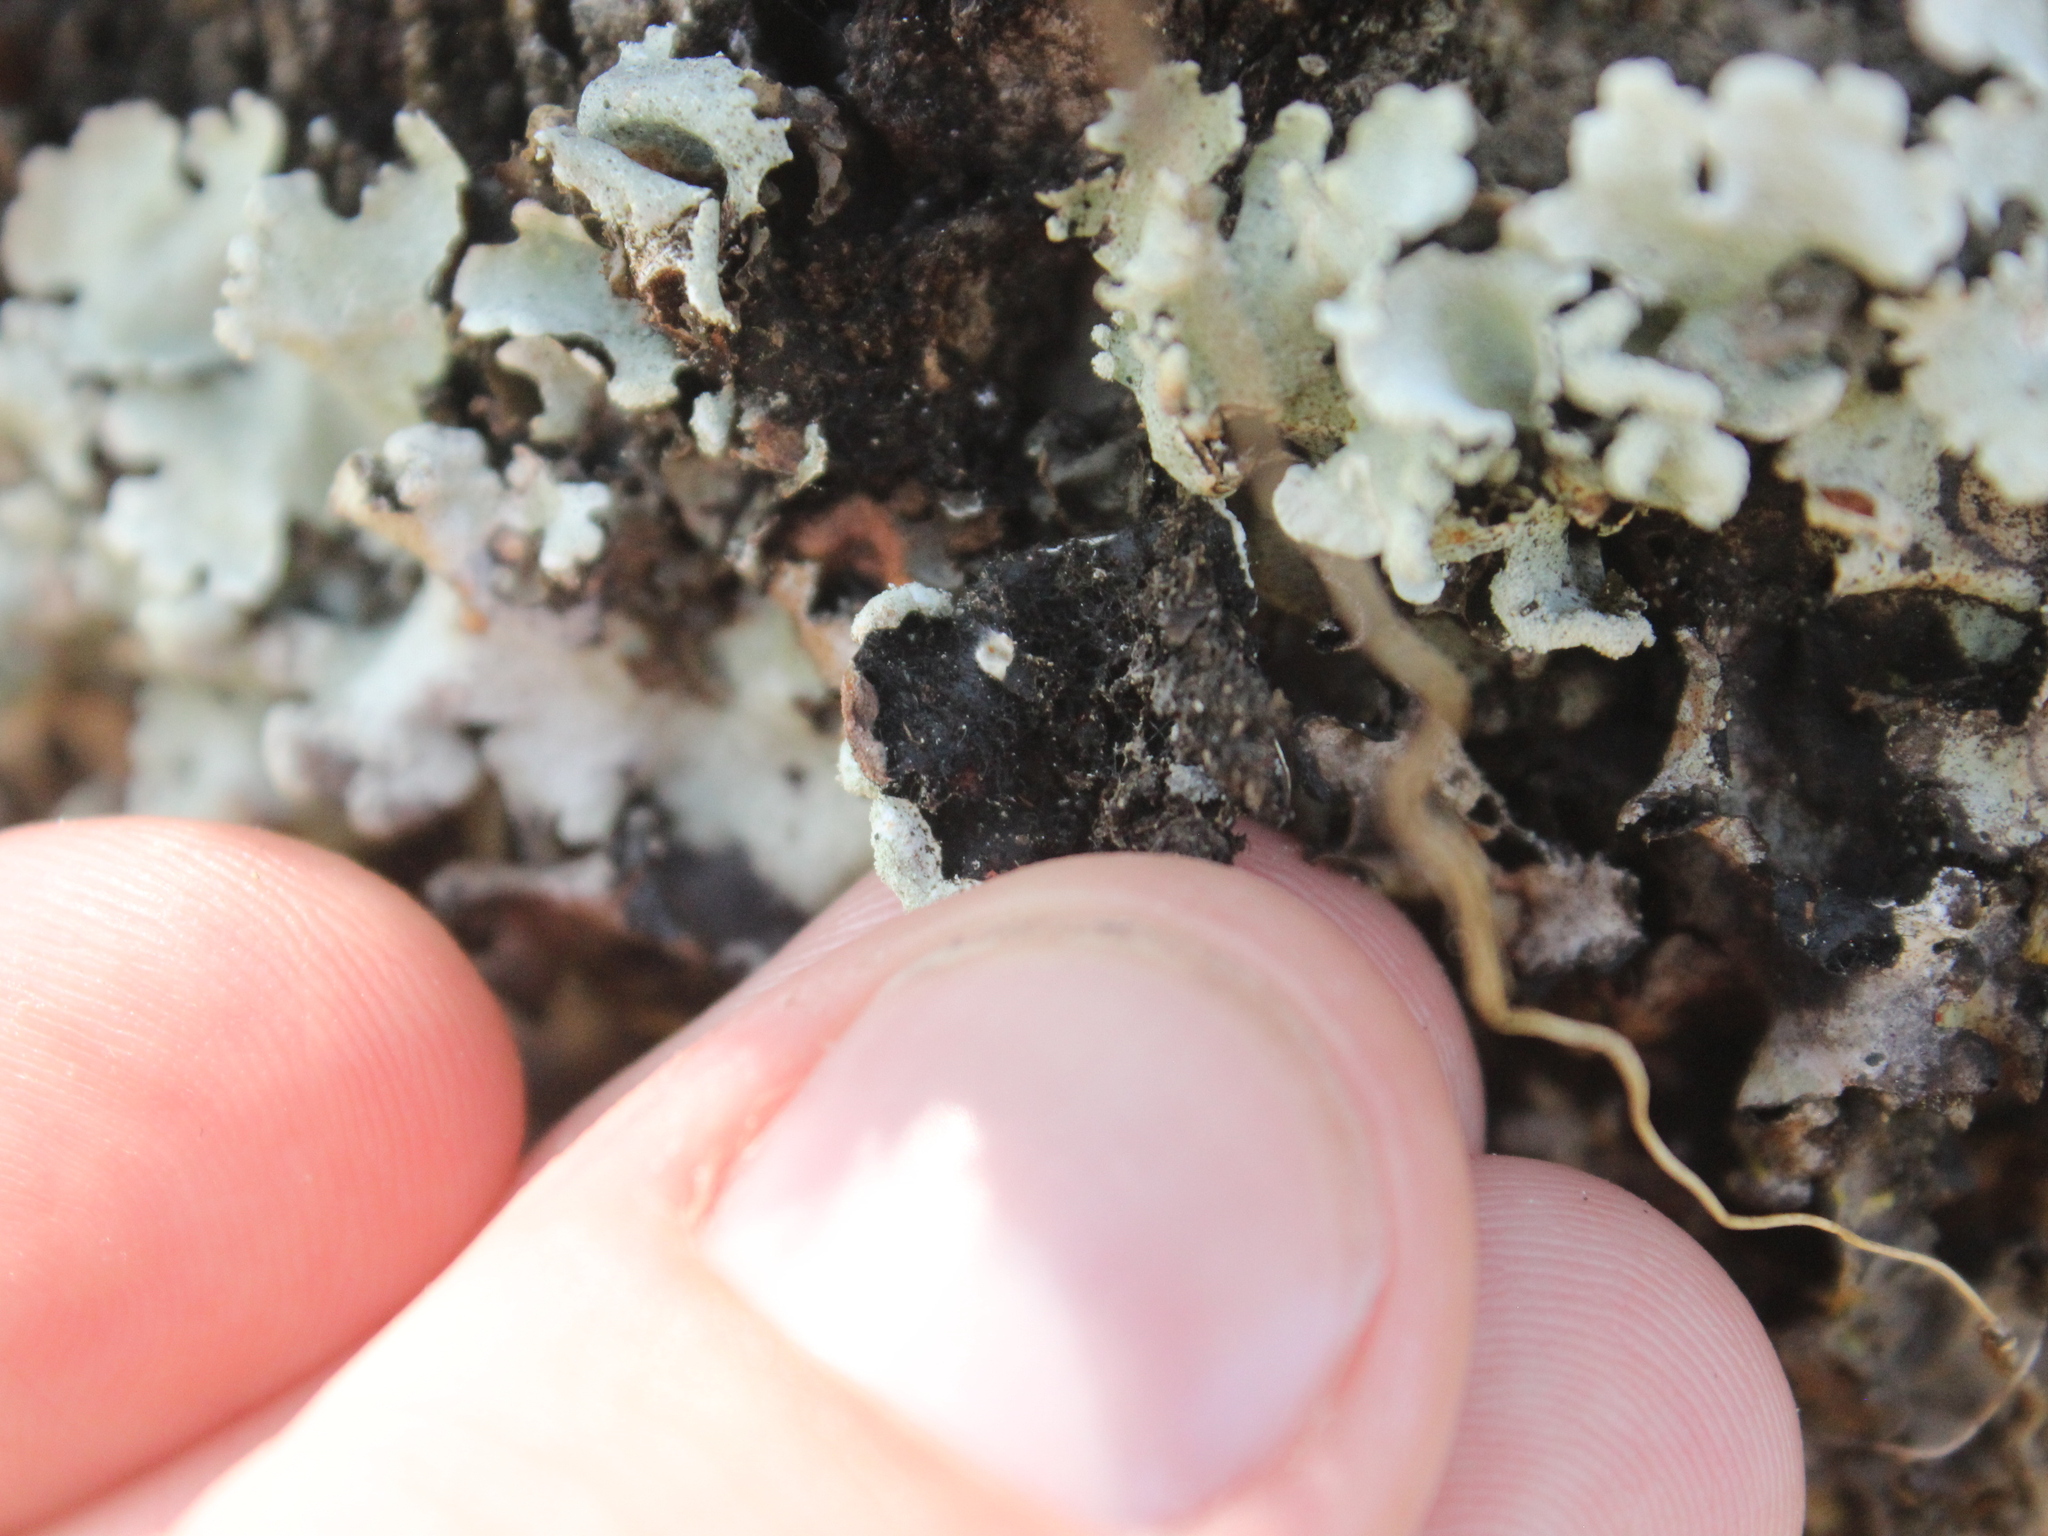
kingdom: Fungi
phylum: Ascomycota
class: Lecanoromycetes
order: Lecanorales
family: Parmeliaceae
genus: Parmotrema
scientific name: Parmotrema reticulatum
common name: Black sheet lichen
